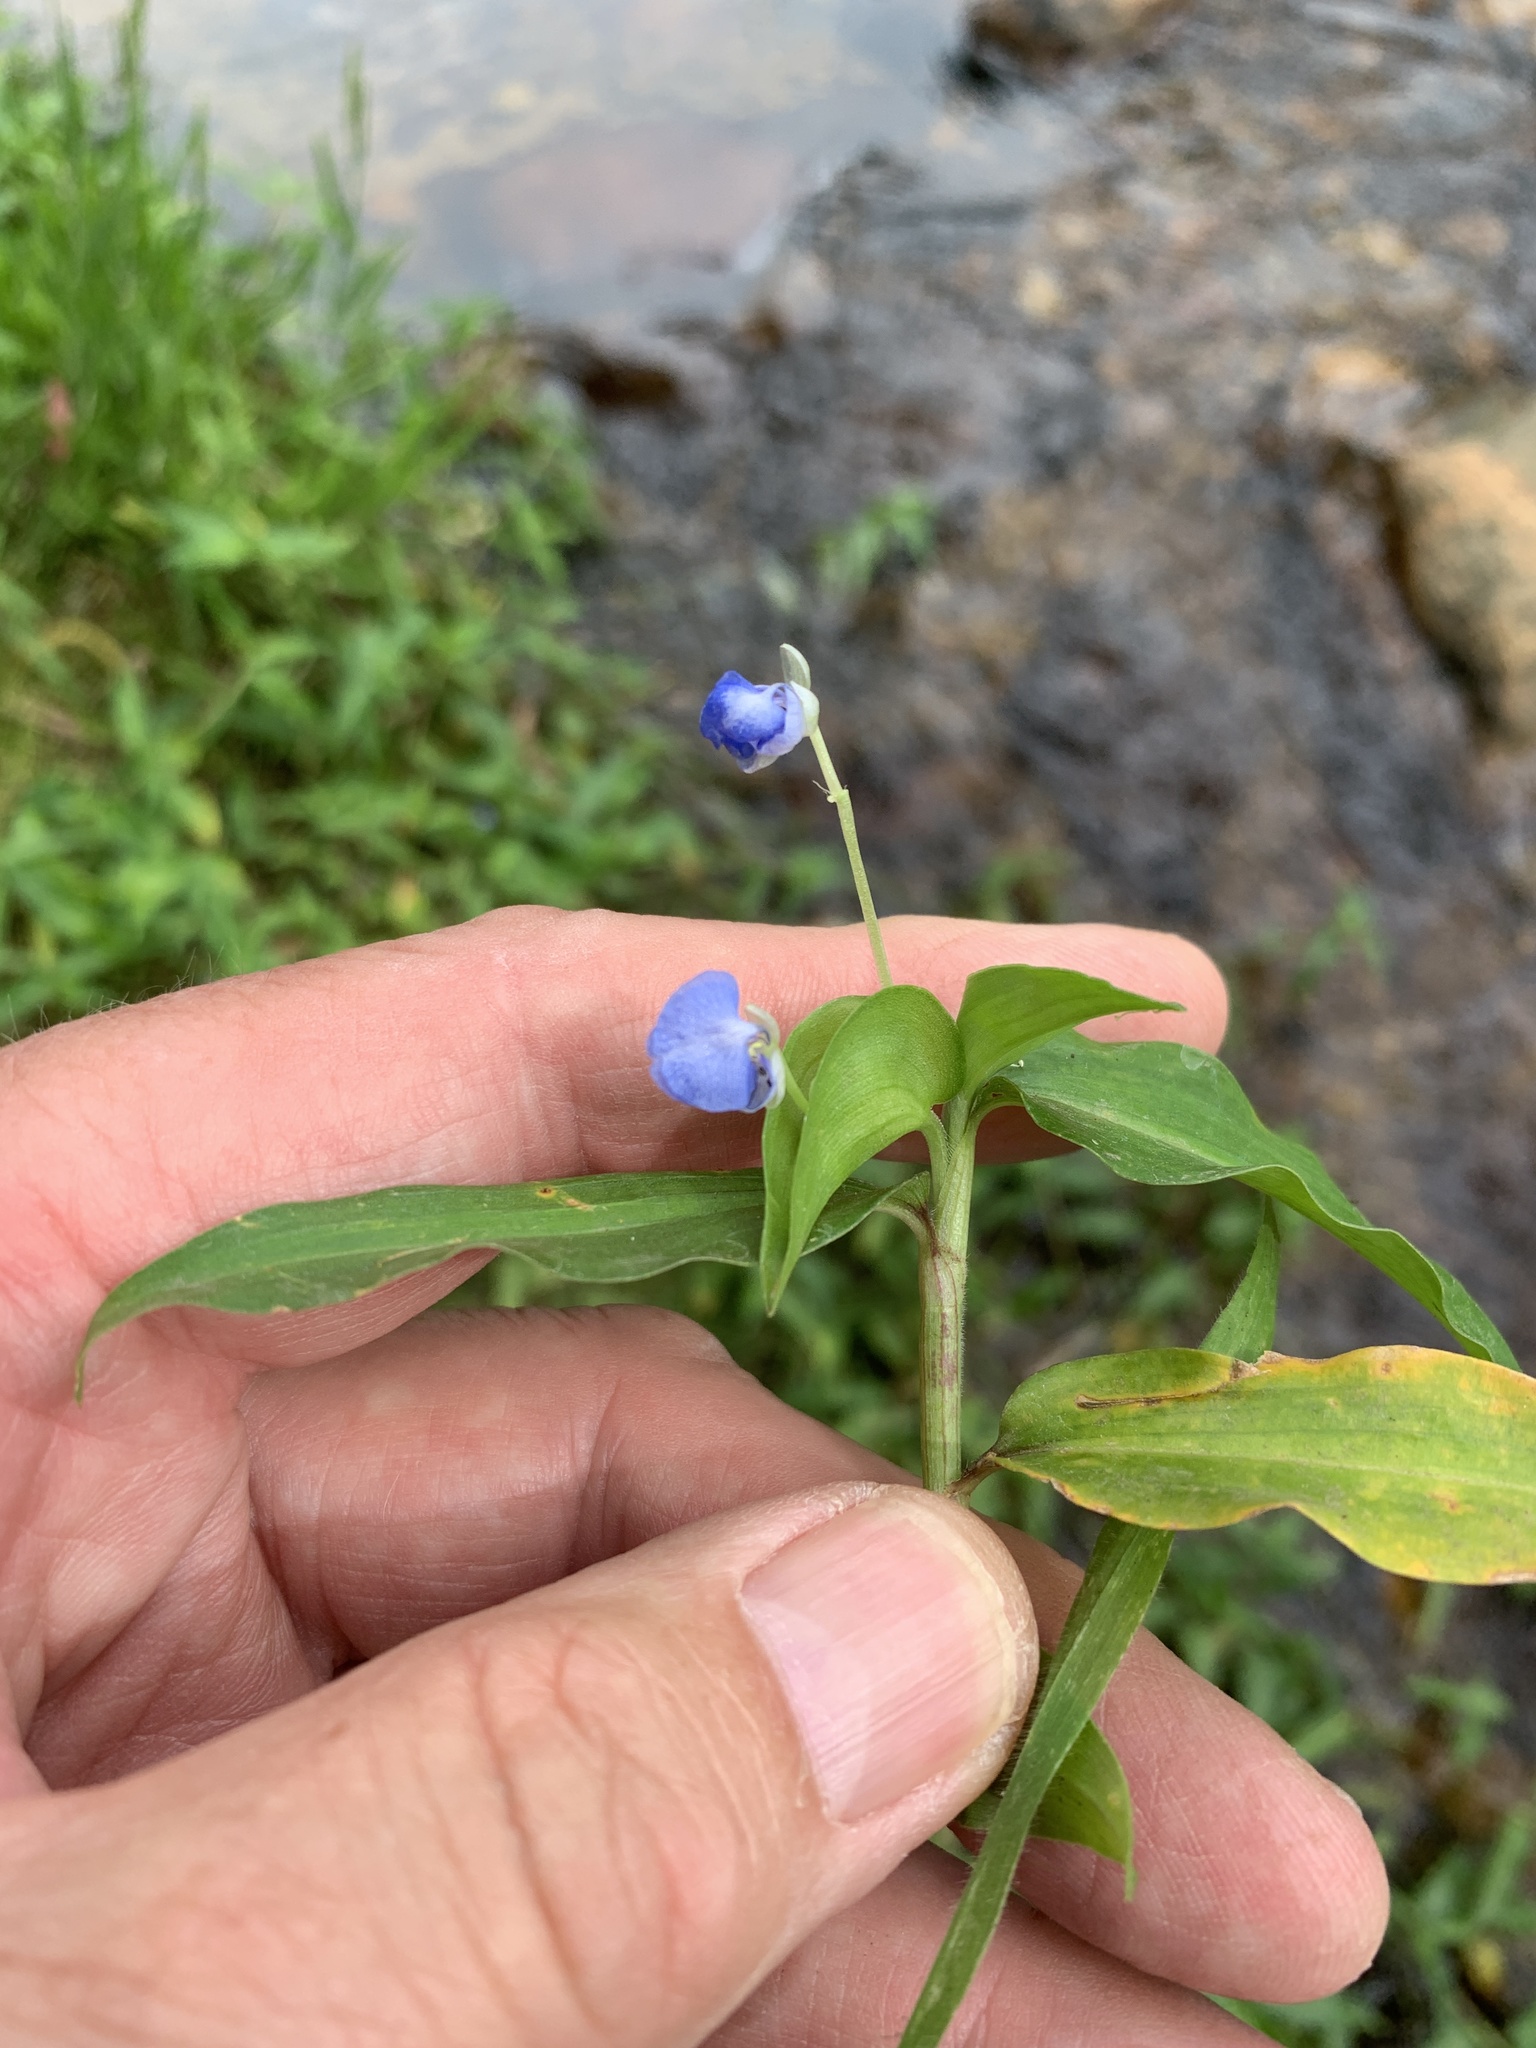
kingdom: Plantae
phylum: Tracheophyta
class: Liliopsida
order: Commelinales
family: Commelinaceae
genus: Commelina
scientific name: Commelina diffusa
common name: Climbing dayflower
